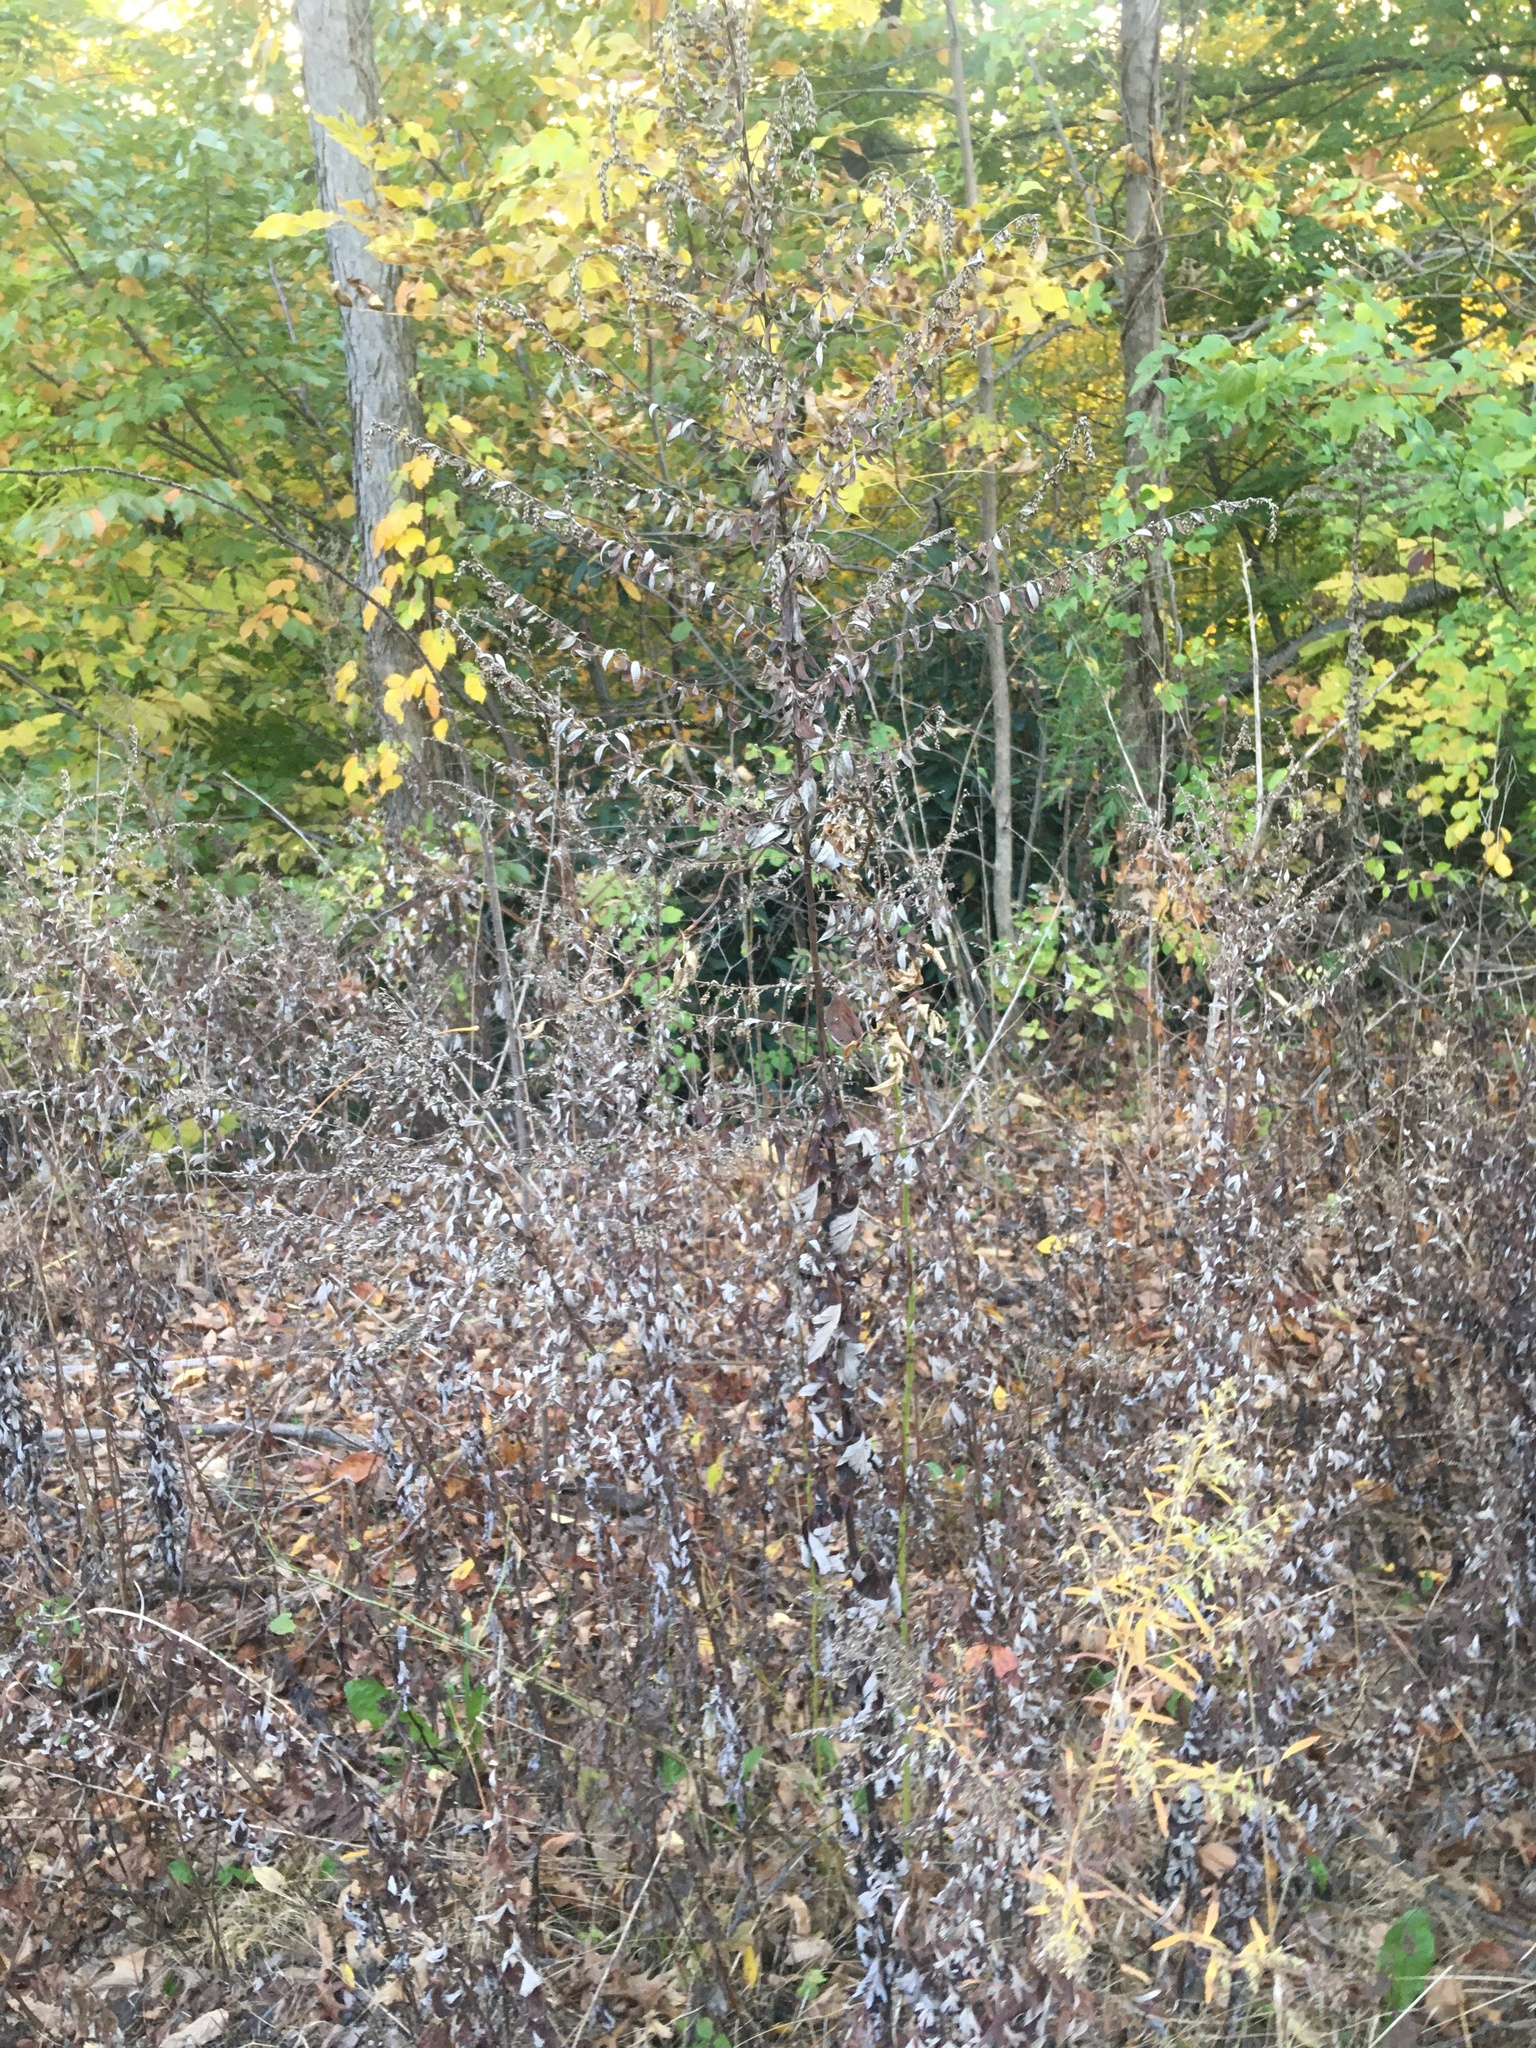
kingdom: Plantae
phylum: Tracheophyta
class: Magnoliopsida
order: Asterales
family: Asteraceae
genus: Artemisia
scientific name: Artemisia vulgaris
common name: Mugwort
